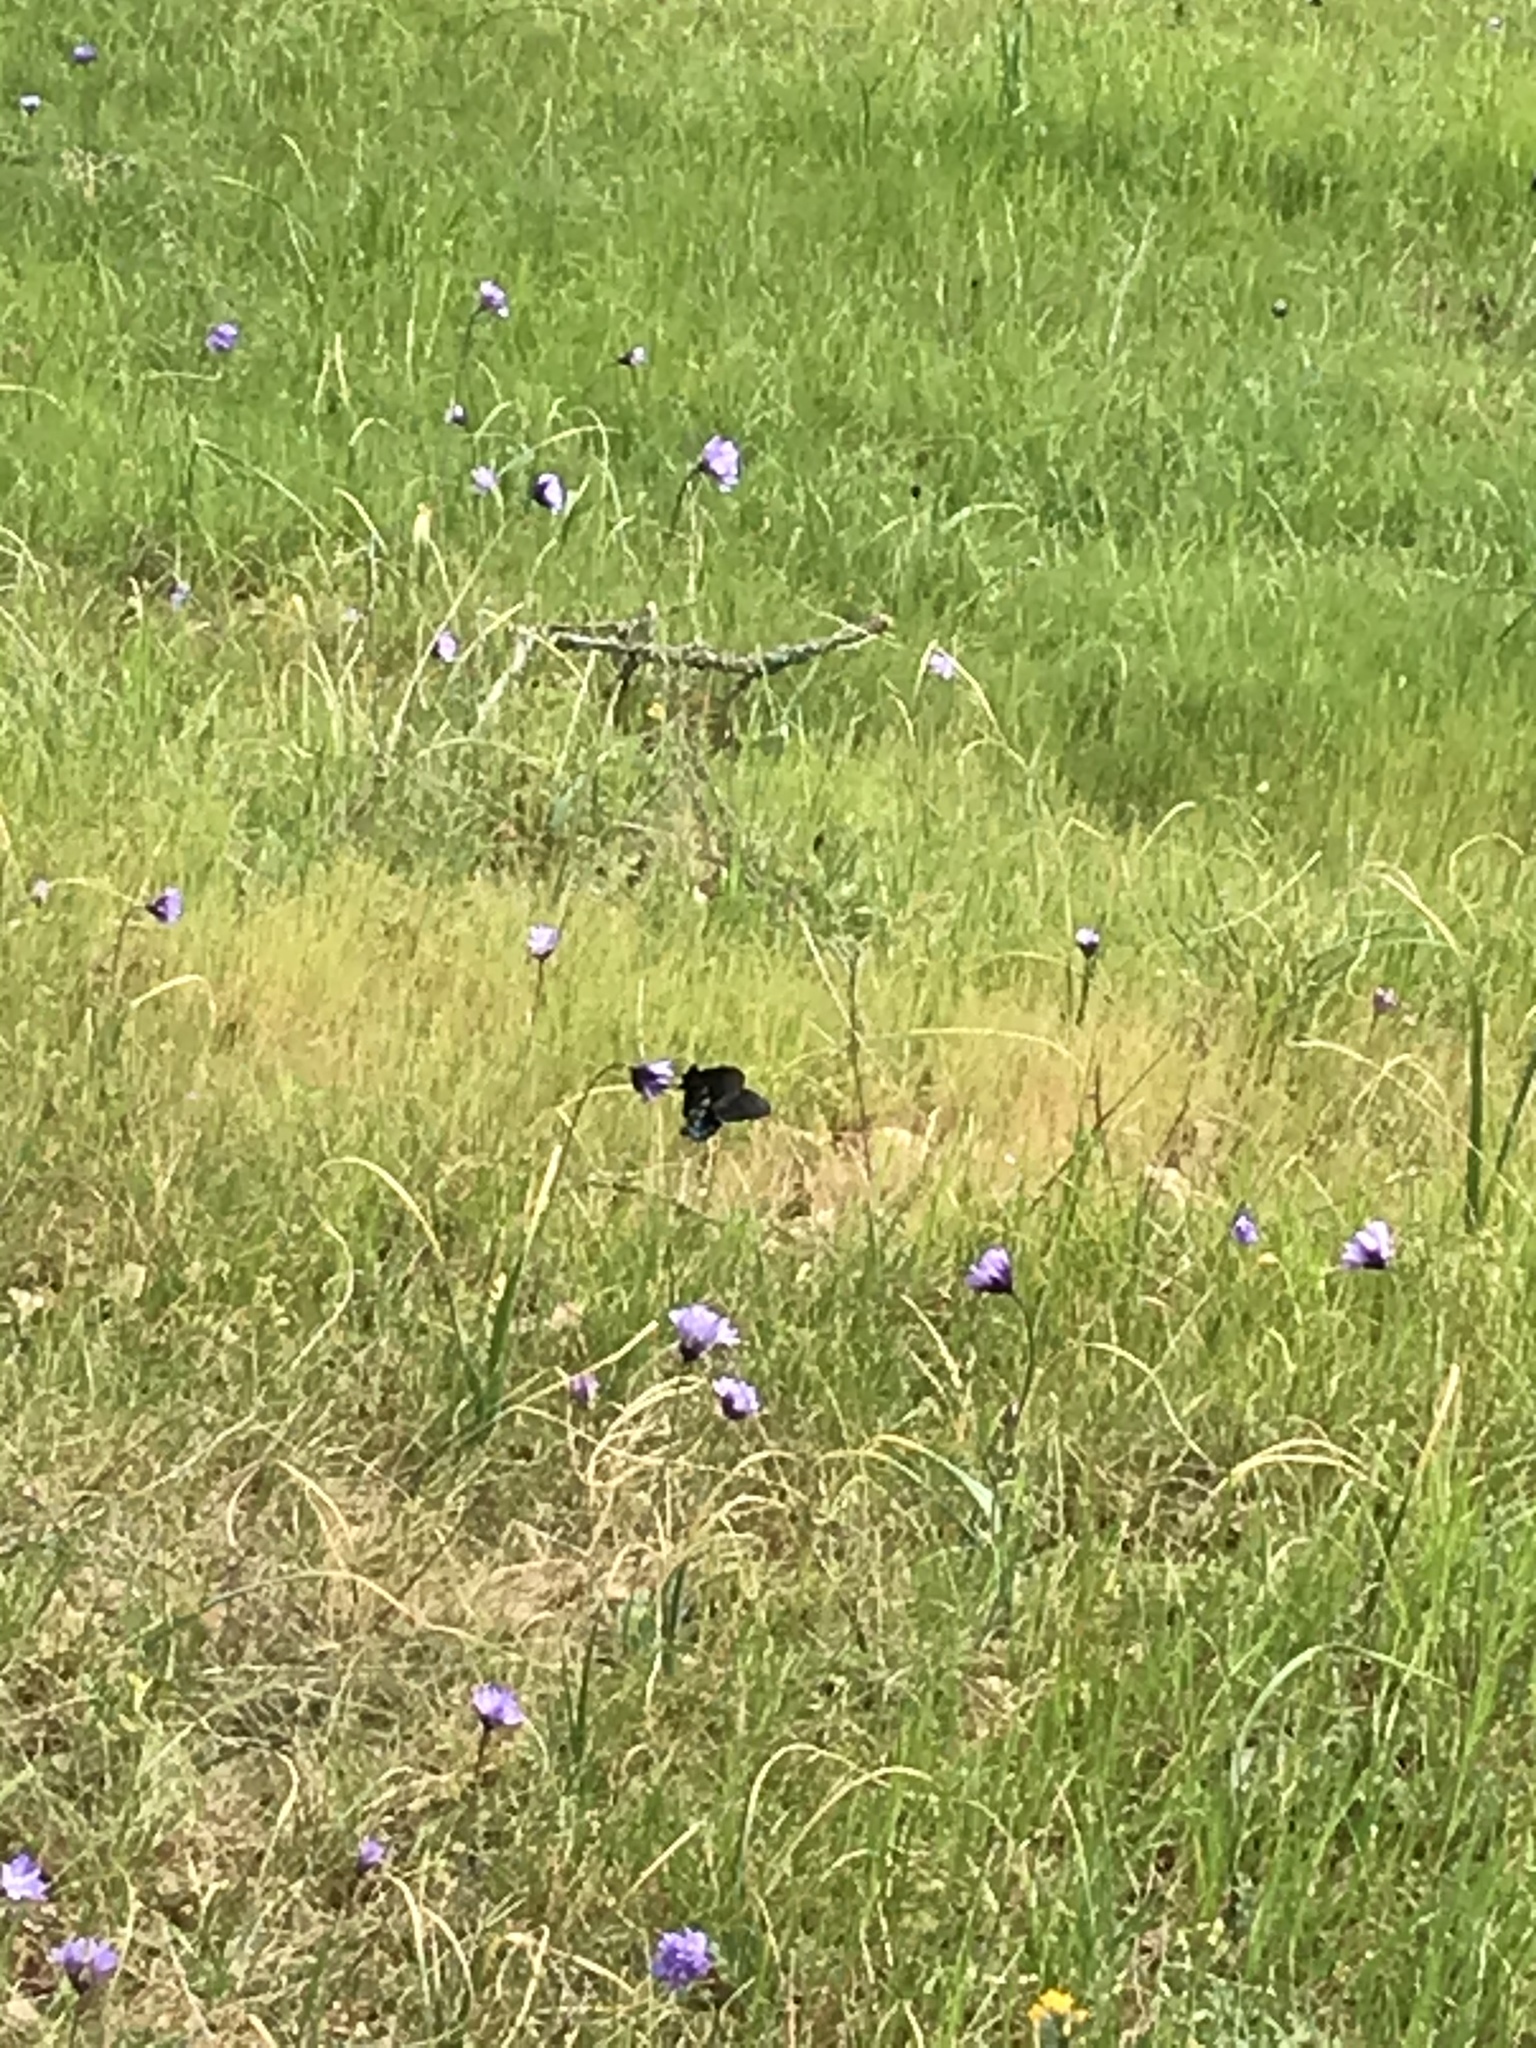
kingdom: Animalia
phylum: Arthropoda
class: Insecta
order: Lepidoptera
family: Papilionidae
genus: Battus
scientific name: Battus philenor
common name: Pipevine swallowtail
